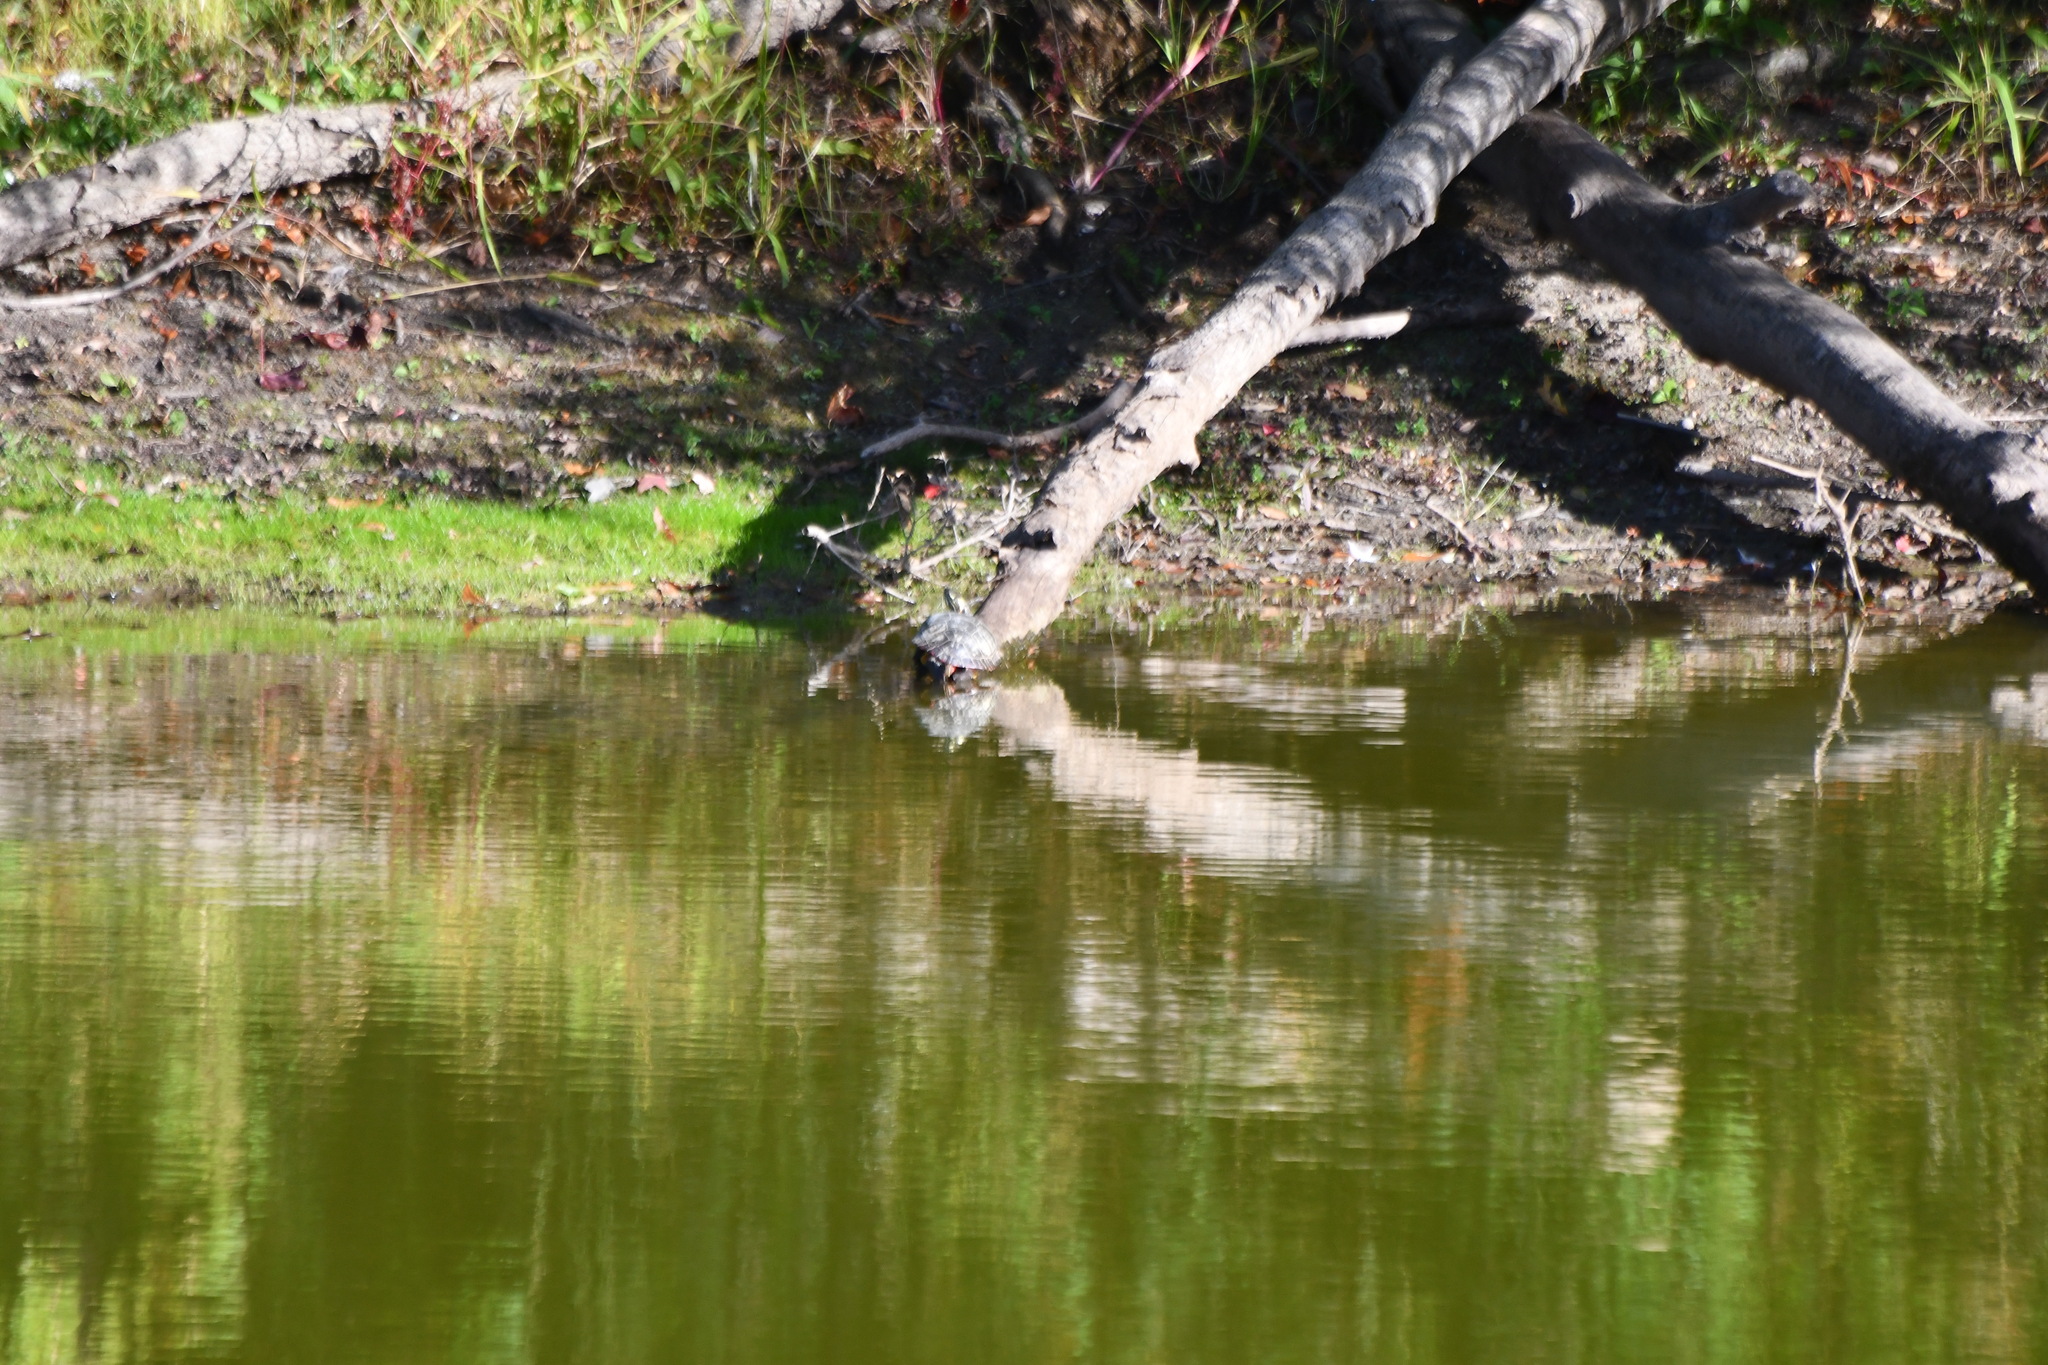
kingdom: Animalia
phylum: Chordata
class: Testudines
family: Emydidae
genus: Chrysemys
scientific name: Chrysemys picta
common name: Painted turtle
